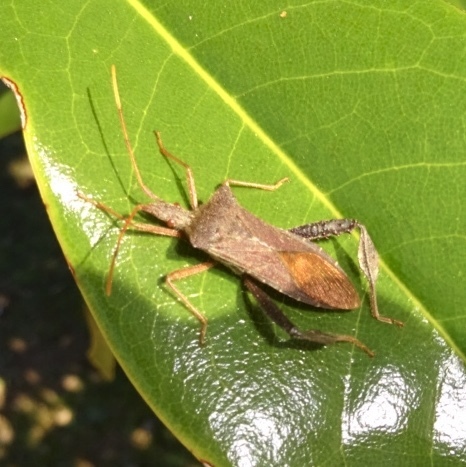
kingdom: Animalia
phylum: Arthropoda
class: Insecta
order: Hemiptera
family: Coreidae
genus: Leptoglossus
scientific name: Leptoglossus fulvicornis
